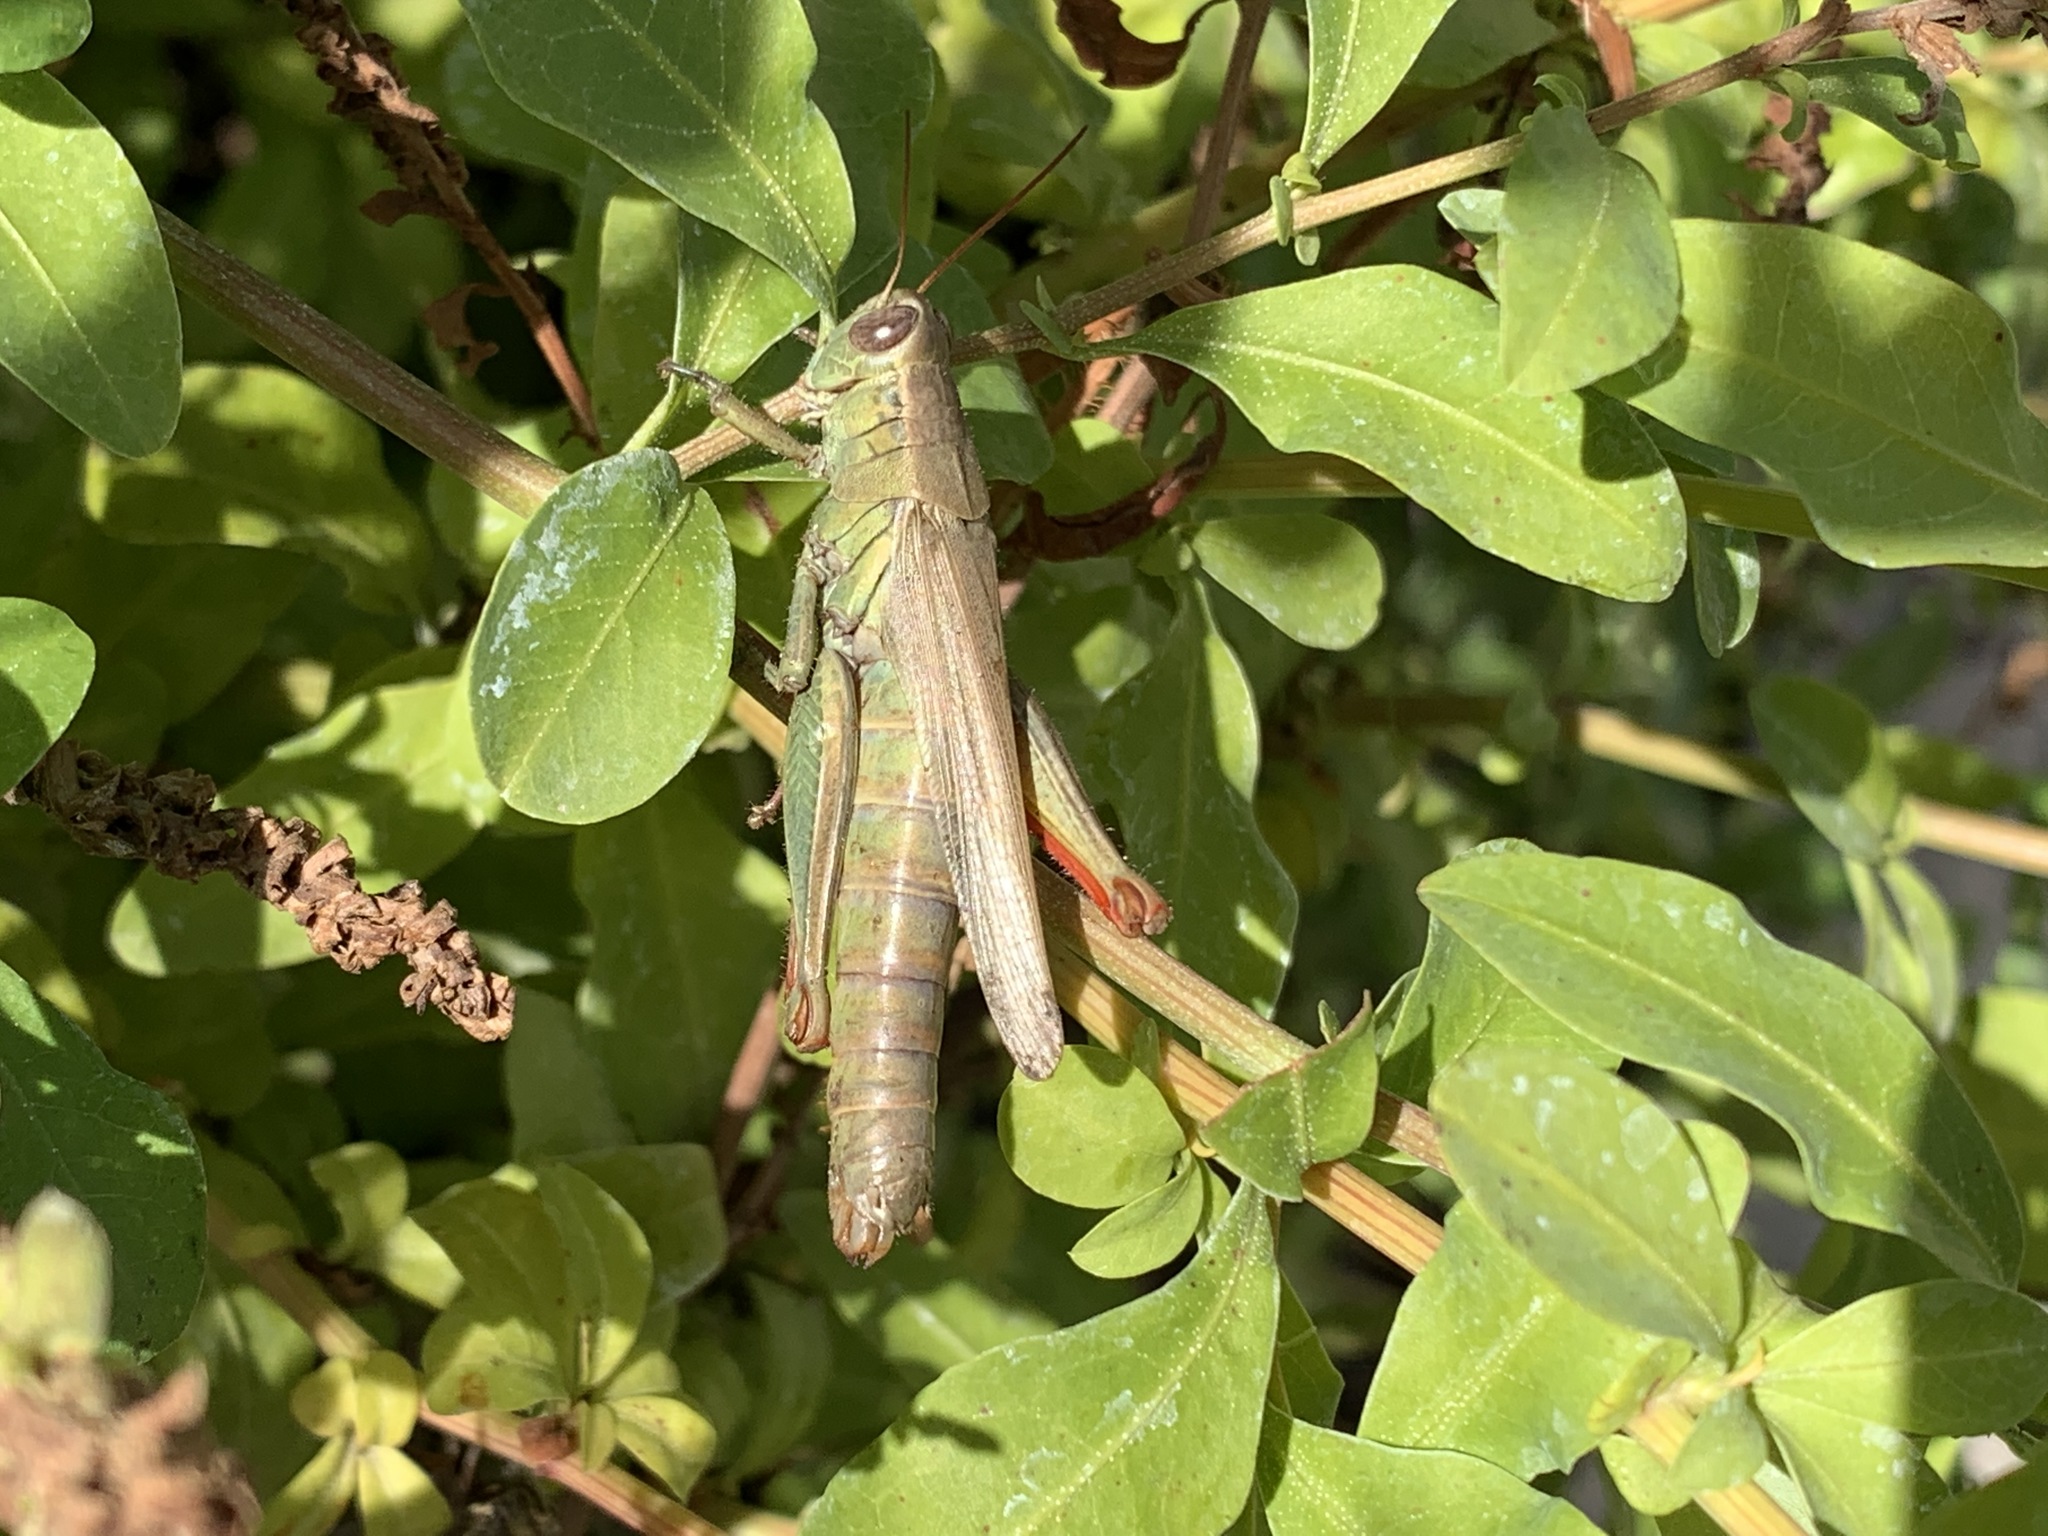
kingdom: Animalia
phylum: Arthropoda
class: Insecta
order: Orthoptera
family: Acrididae
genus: Melanoplus
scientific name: Melanoplus yarrowii
